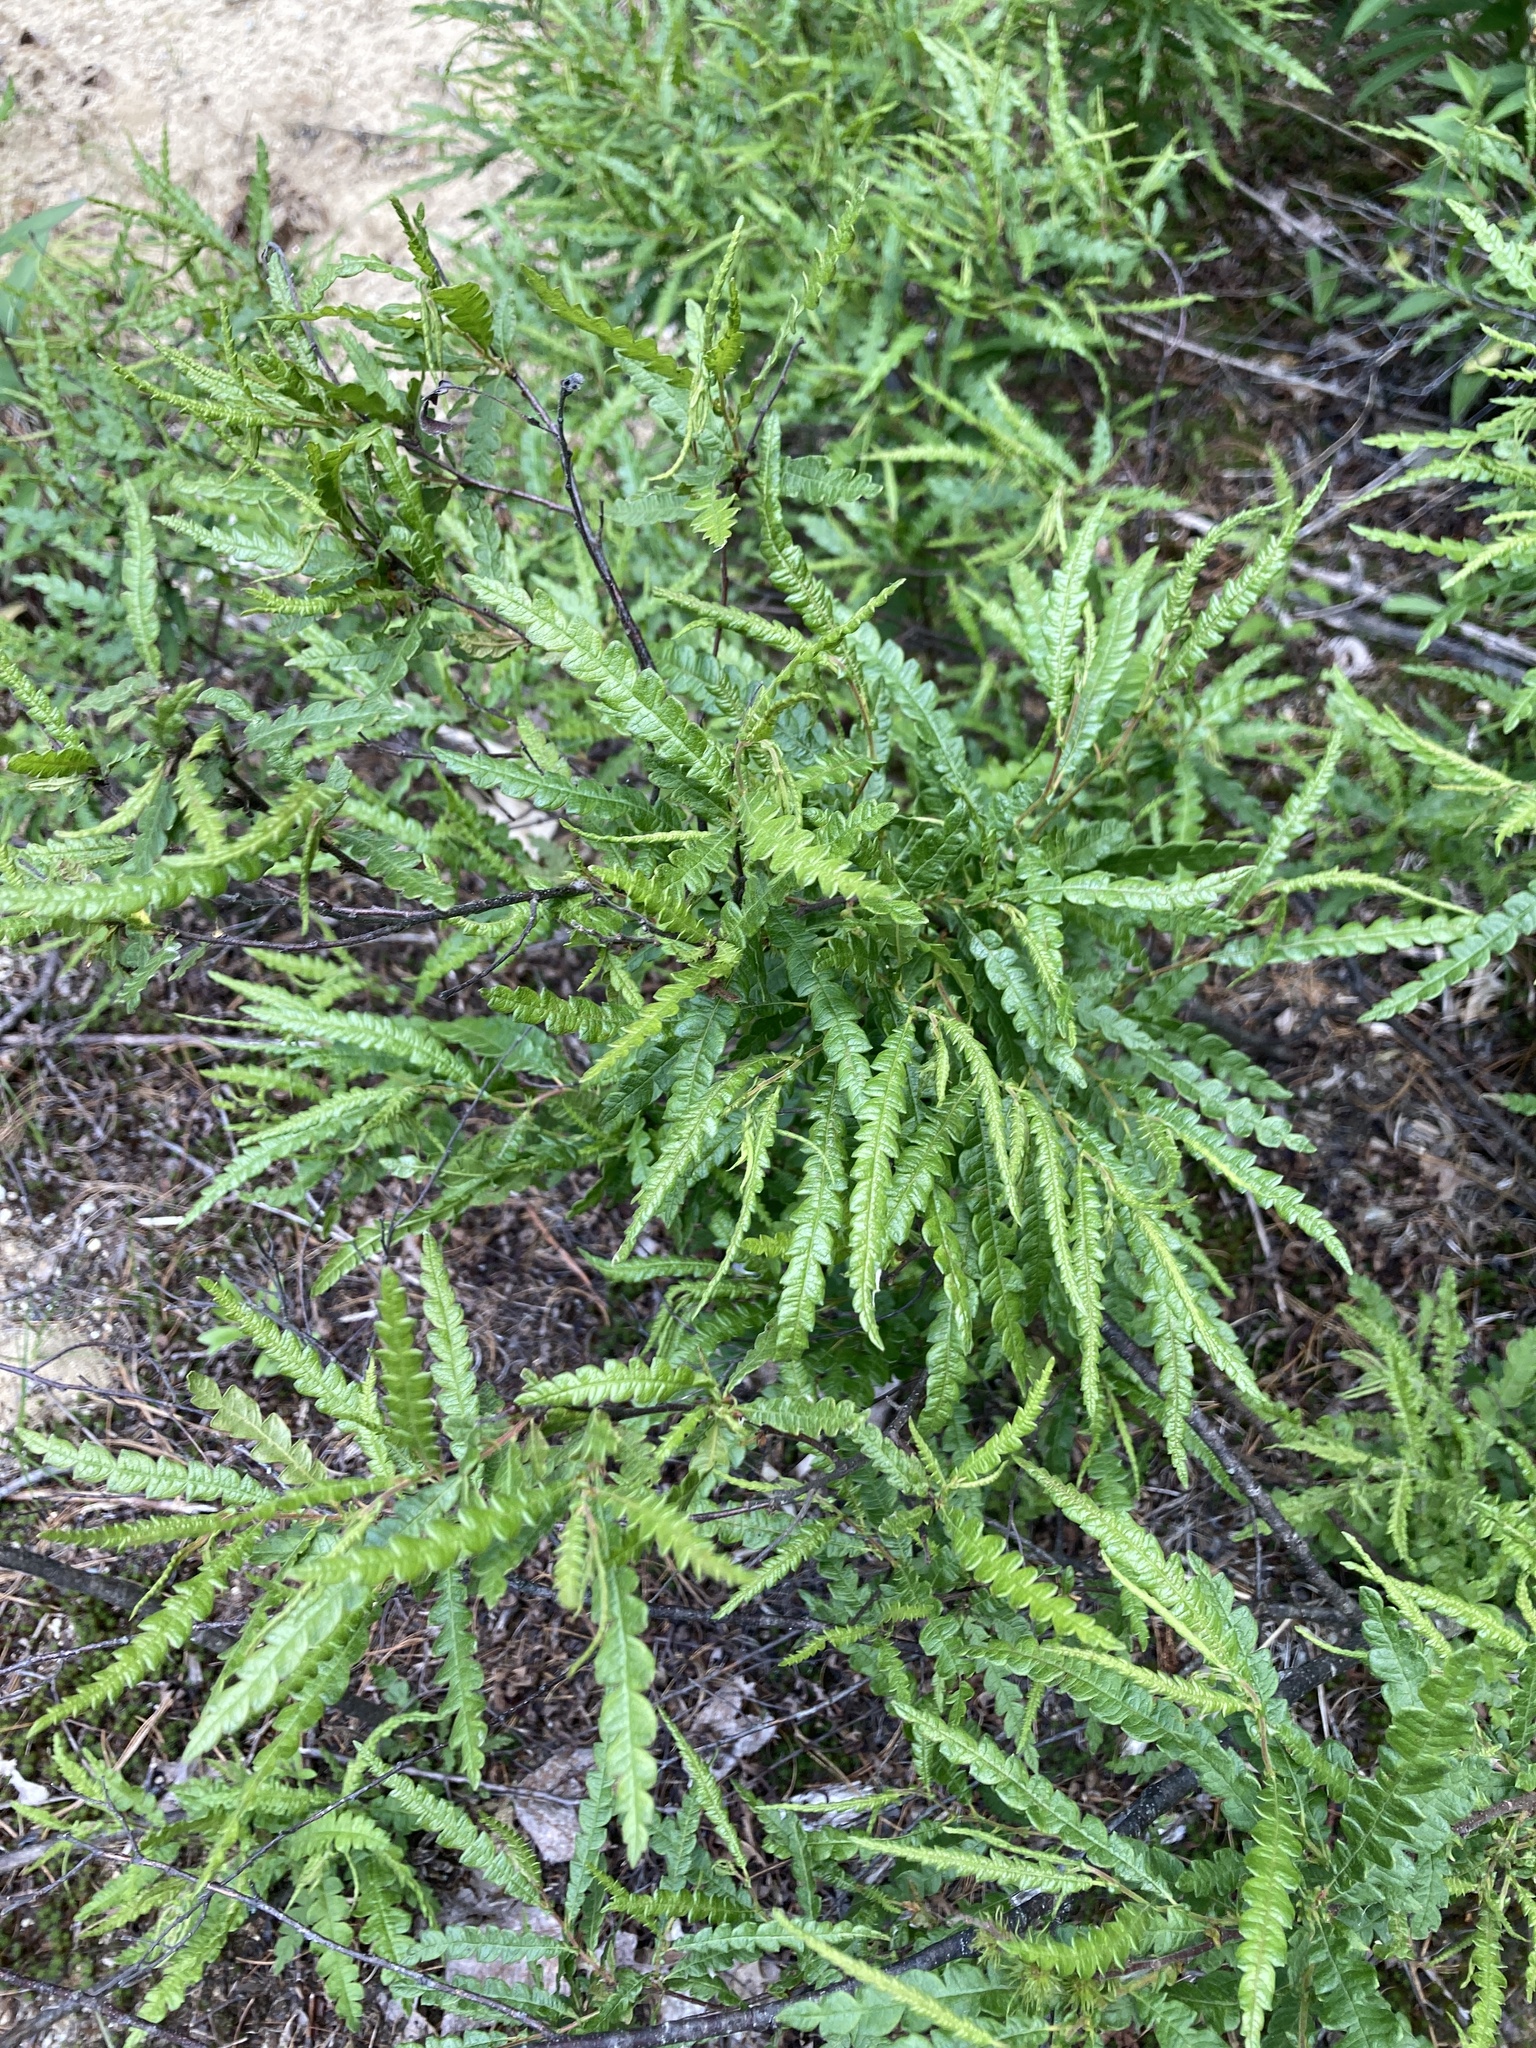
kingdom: Plantae
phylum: Tracheophyta
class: Magnoliopsida
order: Fagales
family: Myricaceae
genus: Comptonia
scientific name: Comptonia peregrina
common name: Sweet-fern
